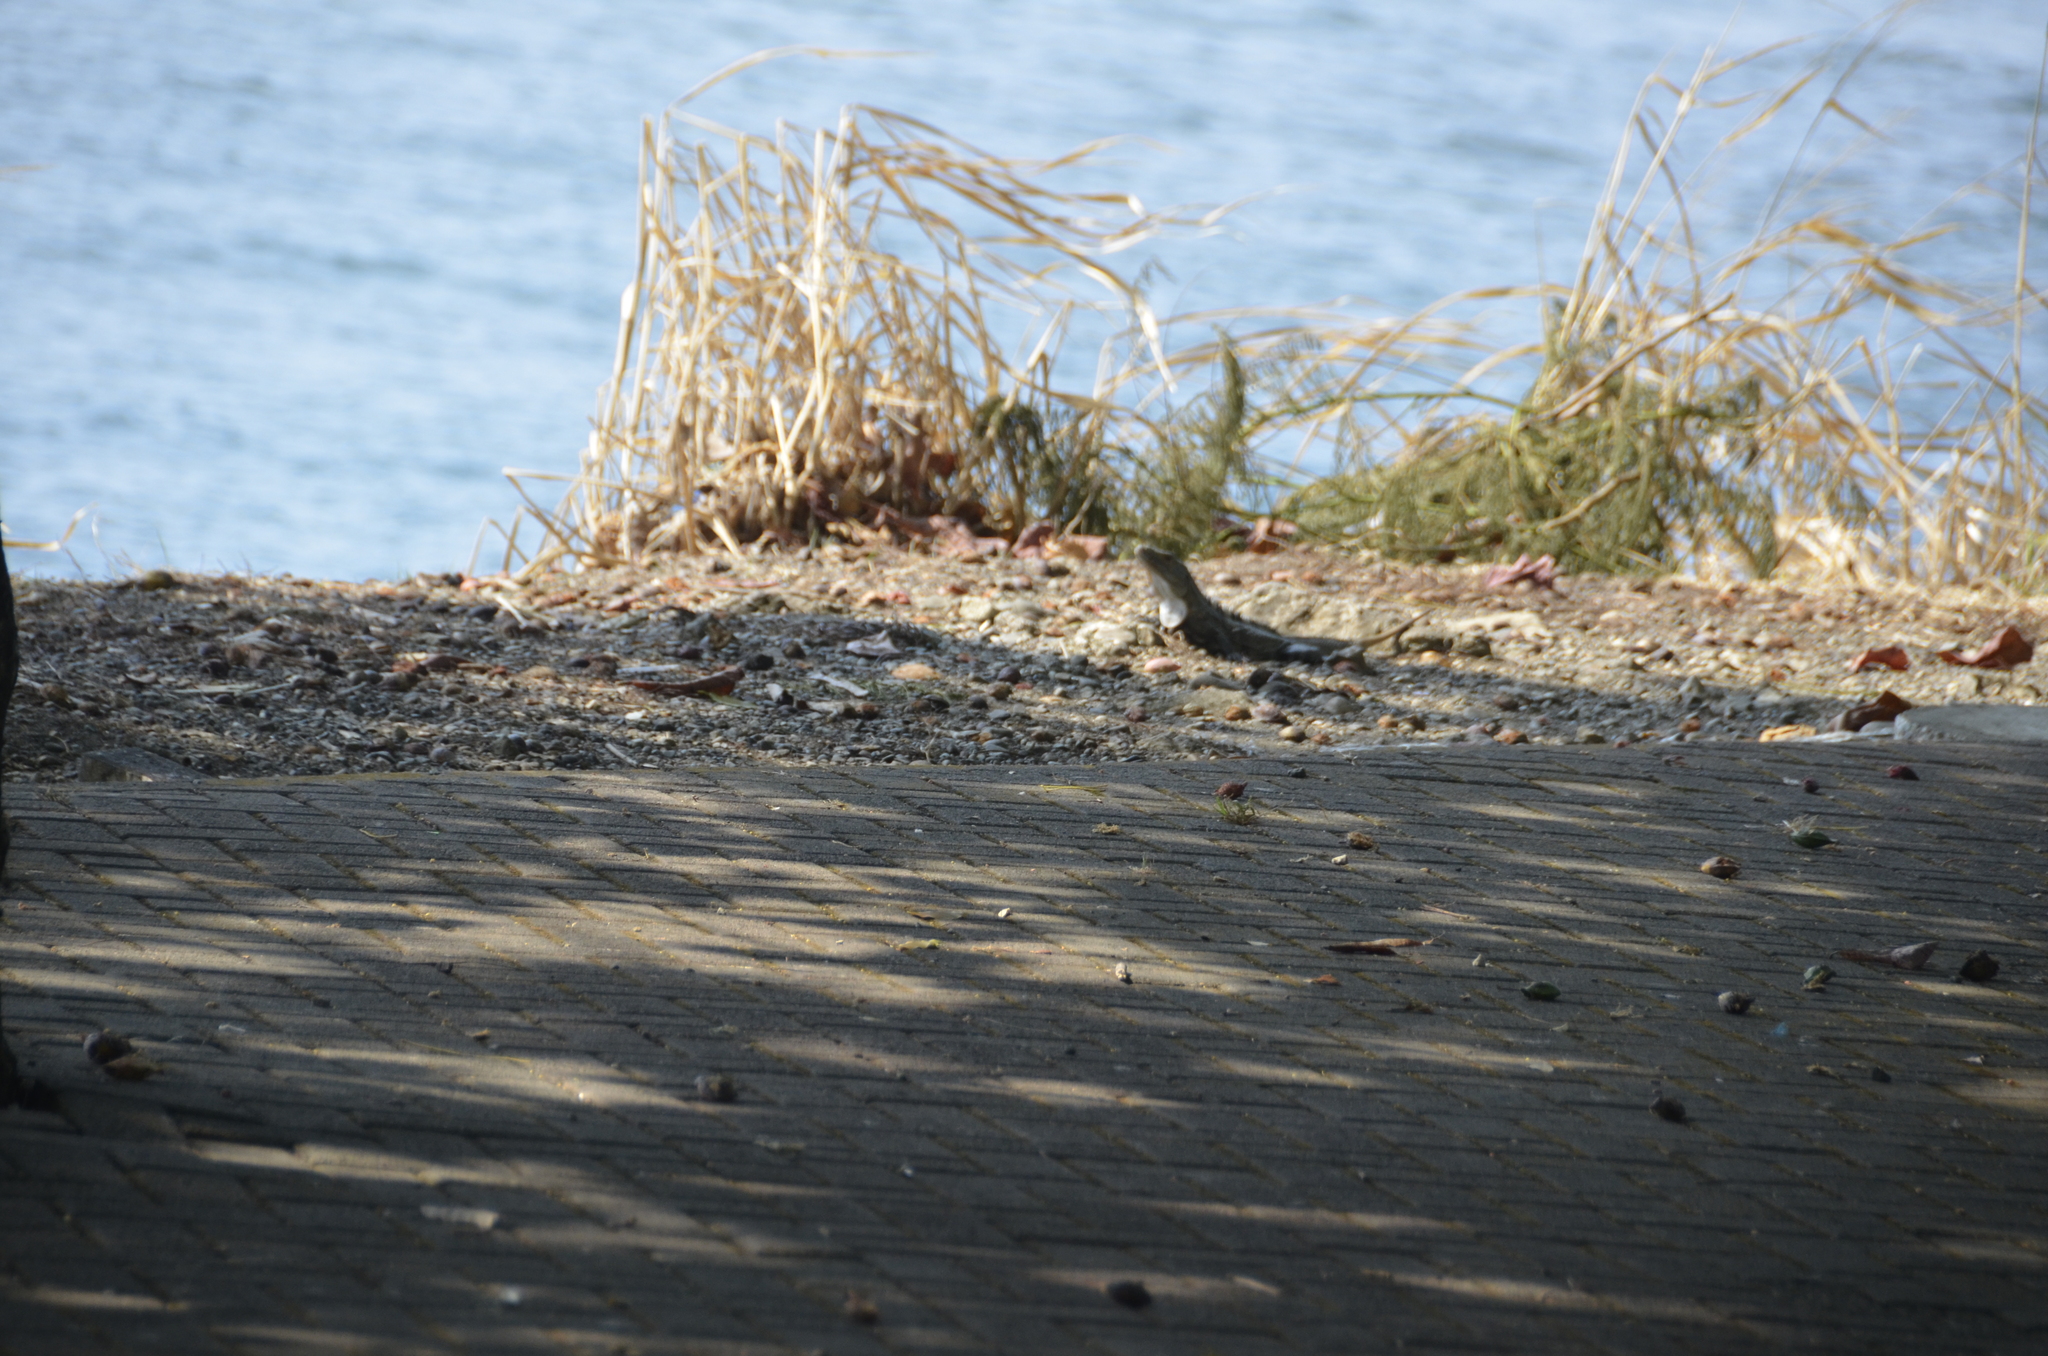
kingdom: Animalia
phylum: Chordata
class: Squamata
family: Iguanidae
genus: Ctenosaura
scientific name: Ctenosaura similis
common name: Black spiny-tailed iguana
